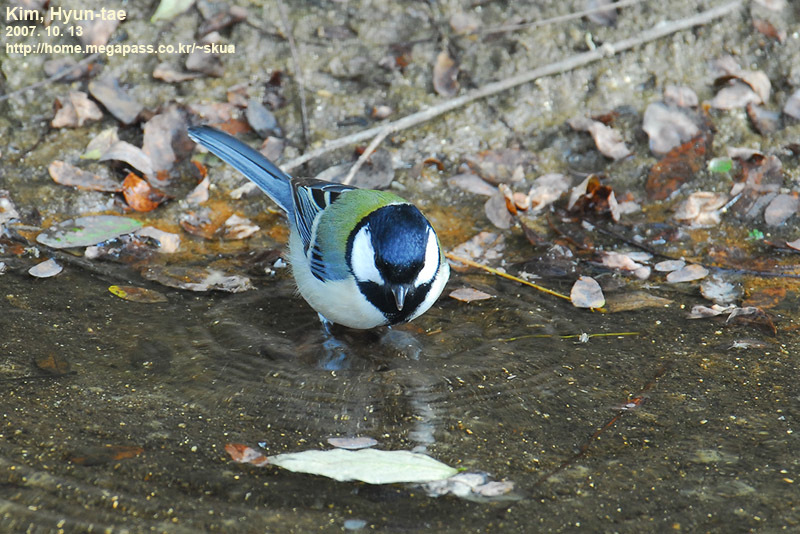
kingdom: Animalia
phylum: Chordata
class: Aves
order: Passeriformes
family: Paridae
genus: Parus
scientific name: Parus minor
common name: Japanese tit
